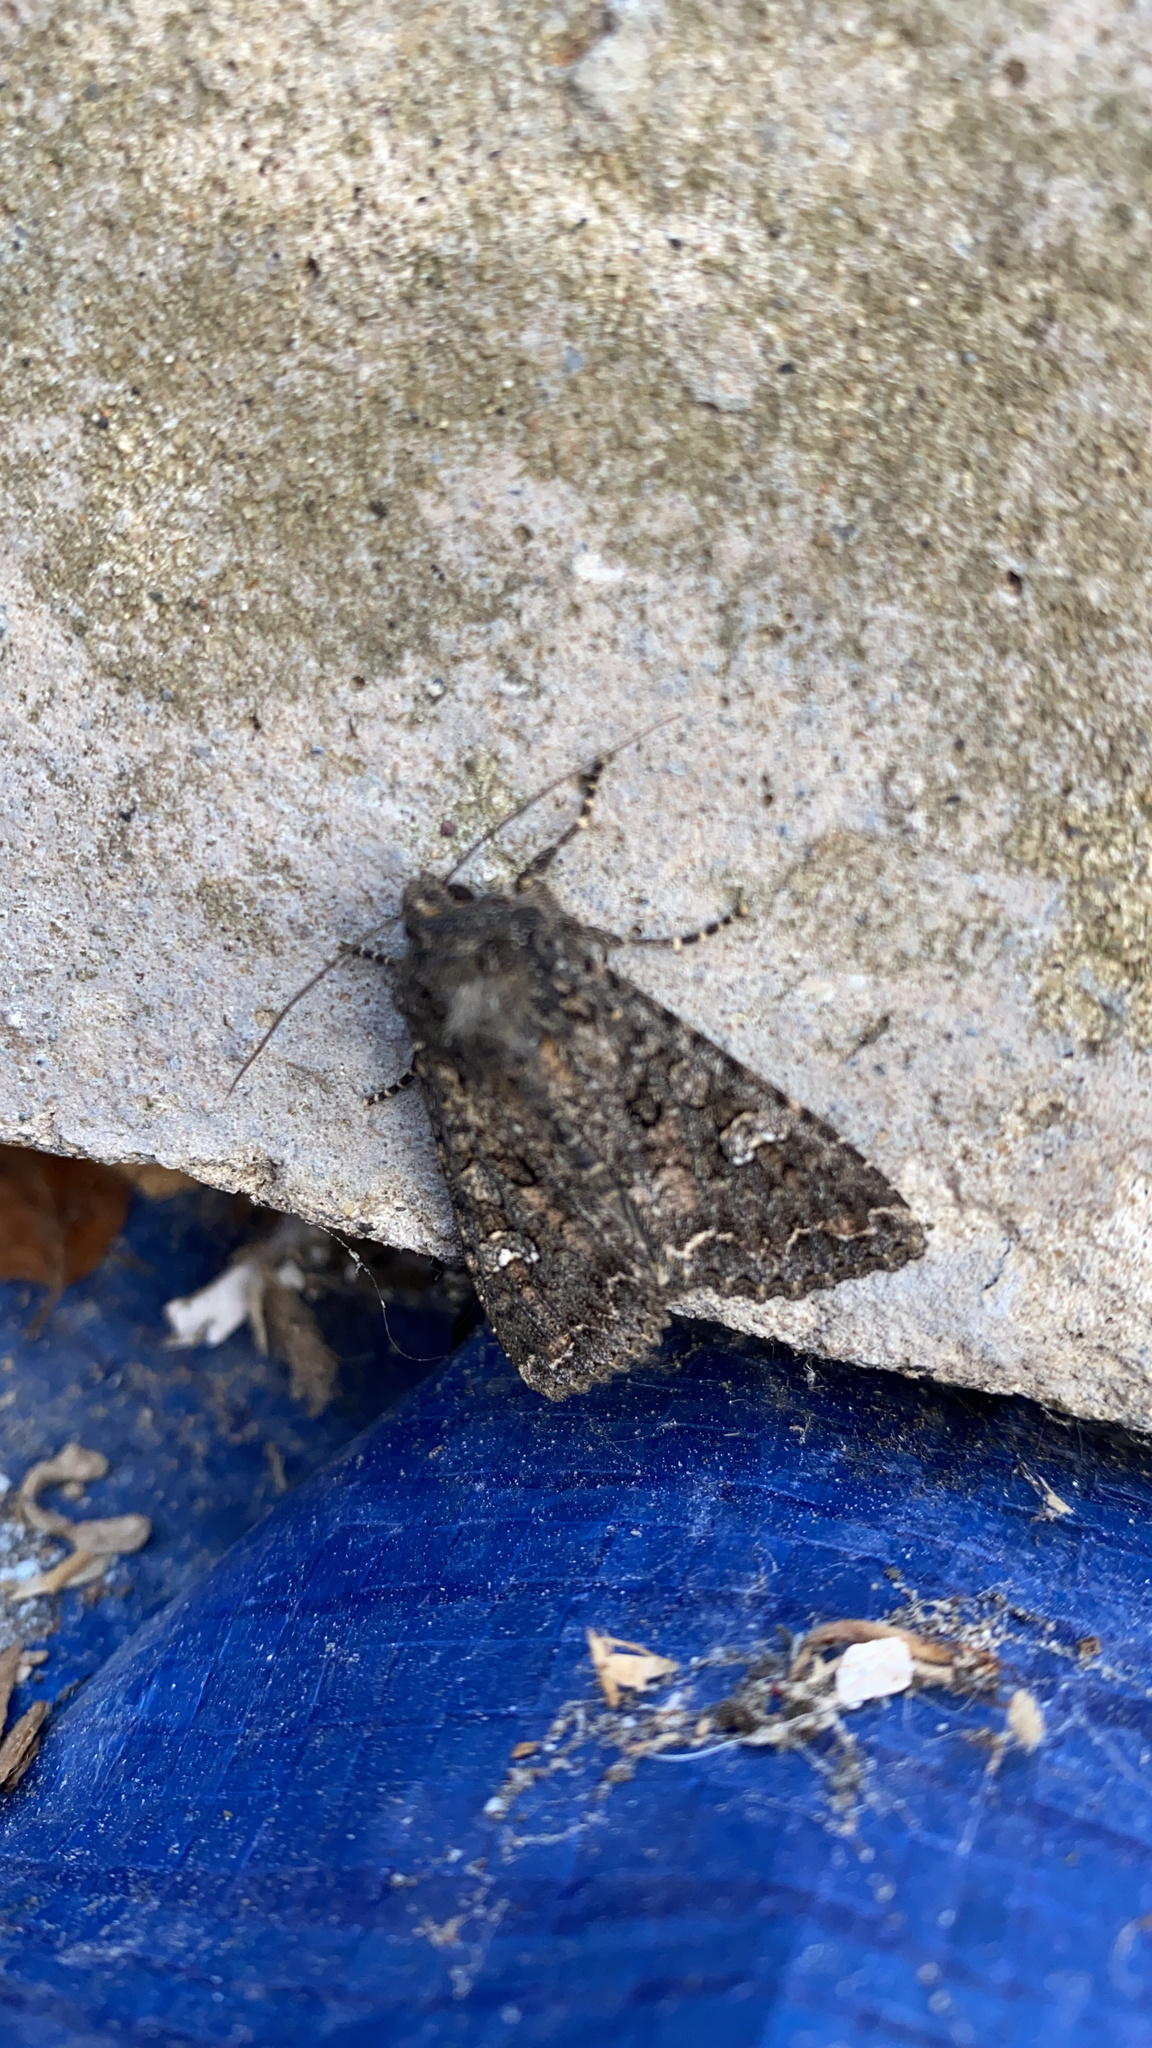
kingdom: Animalia
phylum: Arthropoda
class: Insecta
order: Lepidoptera
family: Noctuidae
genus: Mamestra
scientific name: Mamestra brassicae
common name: Cabbage moth
